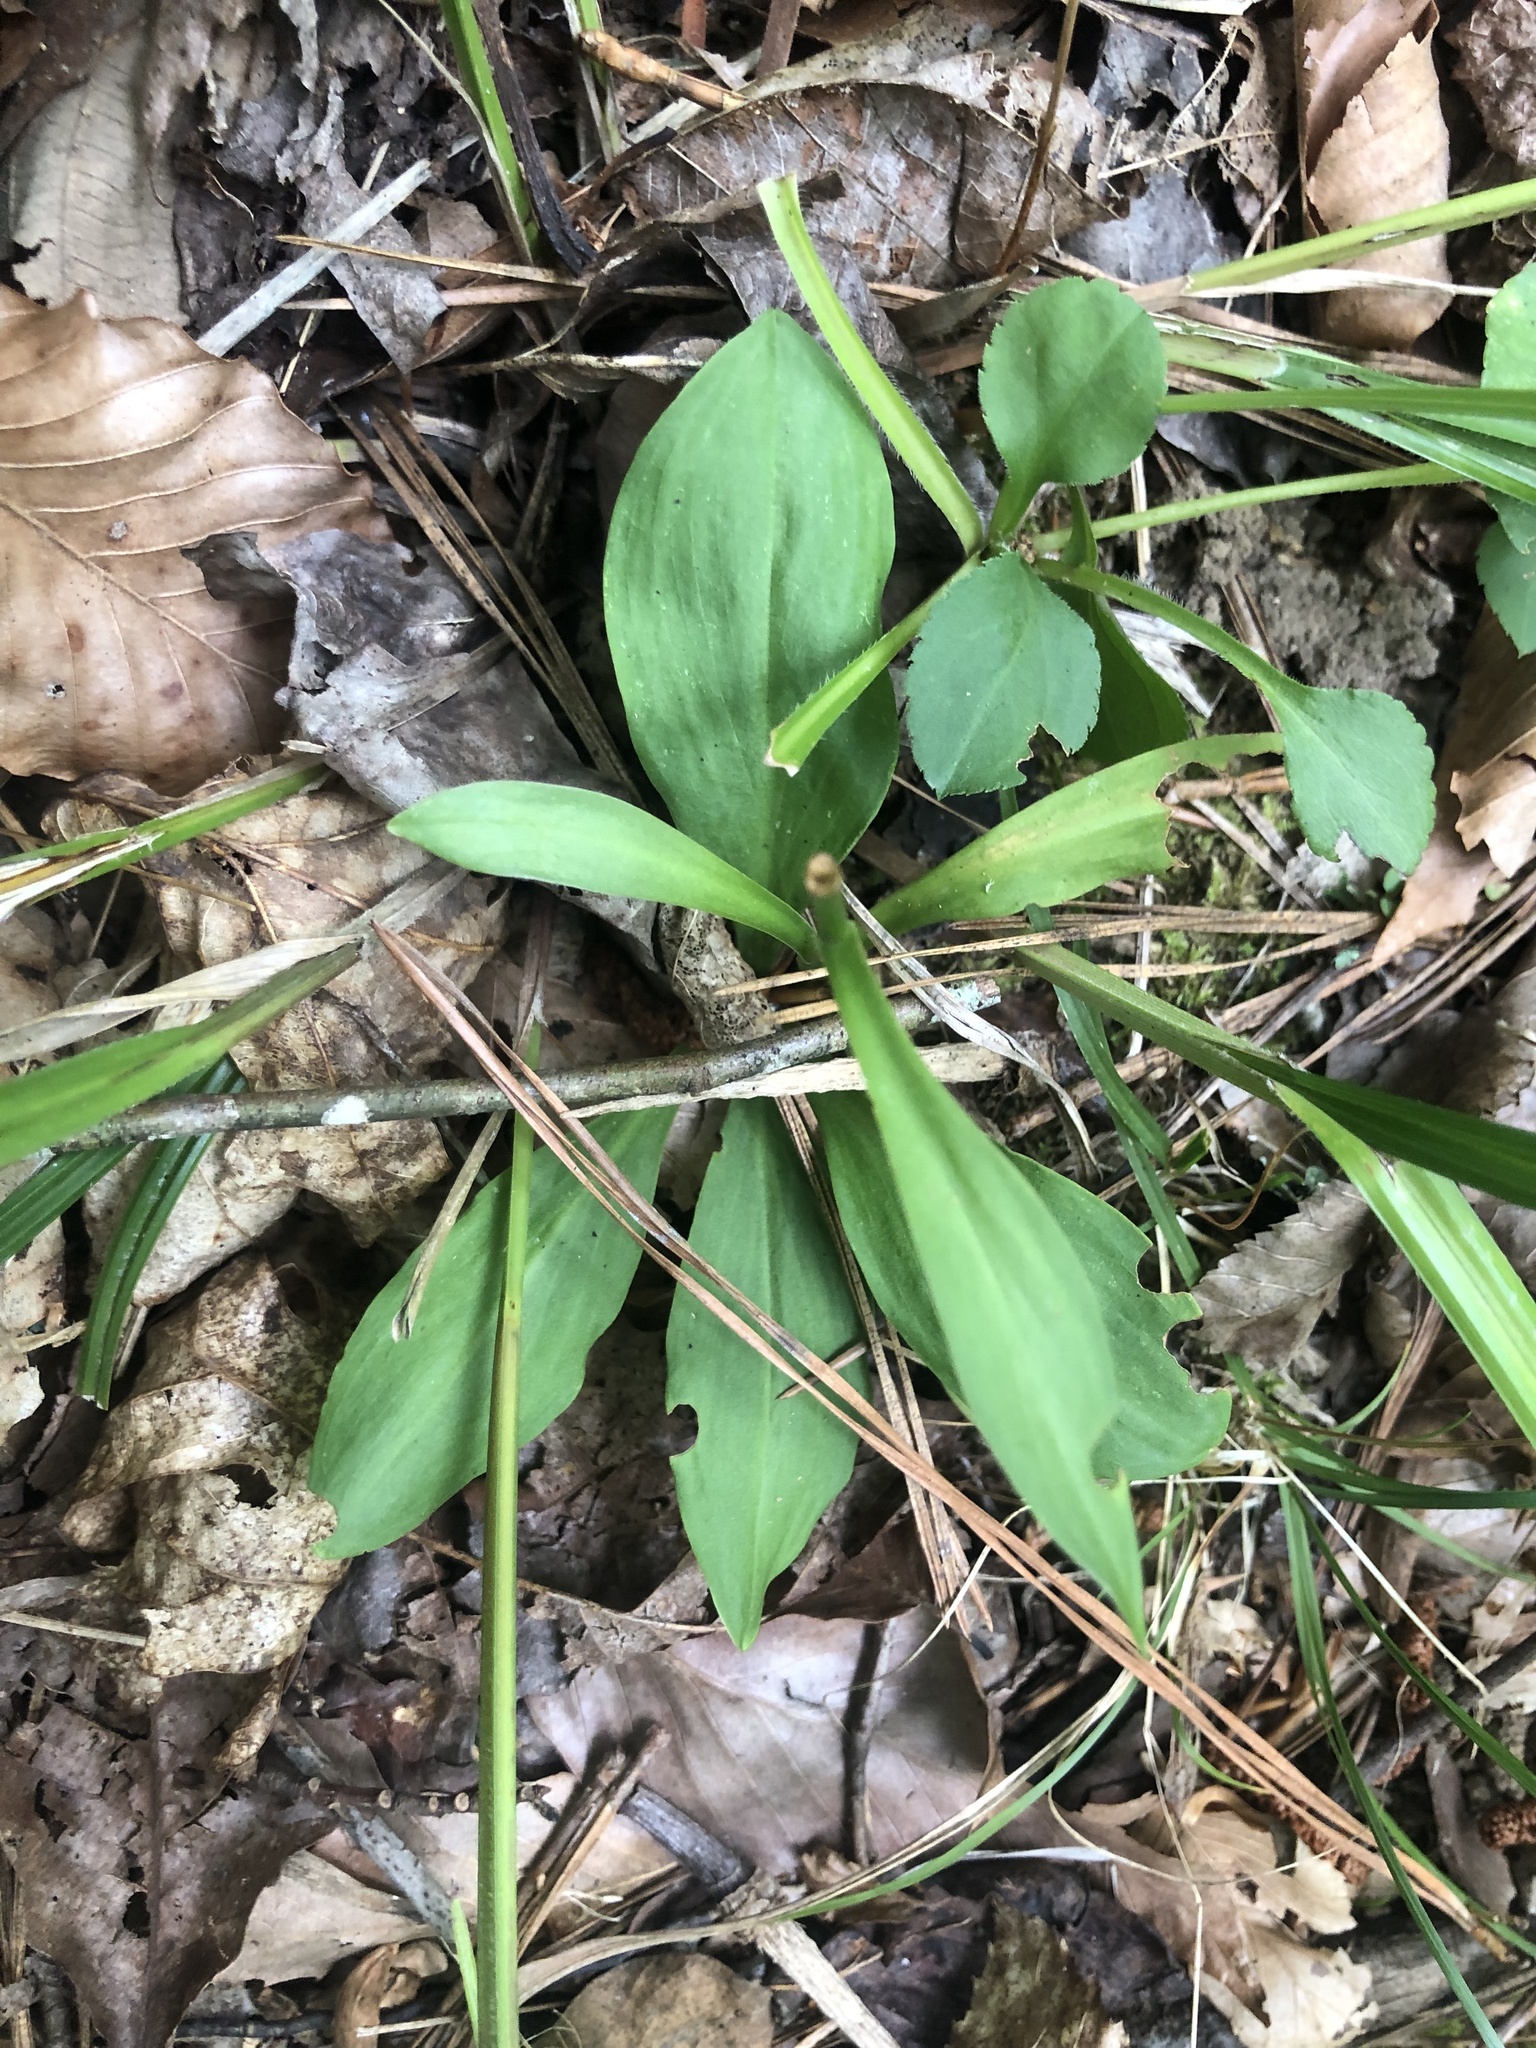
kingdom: Plantae
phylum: Tracheophyta
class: Liliopsida
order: Liliales
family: Melanthiaceae
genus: Chamaelirium
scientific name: Chamaelirium luteum
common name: Fairy-wand
